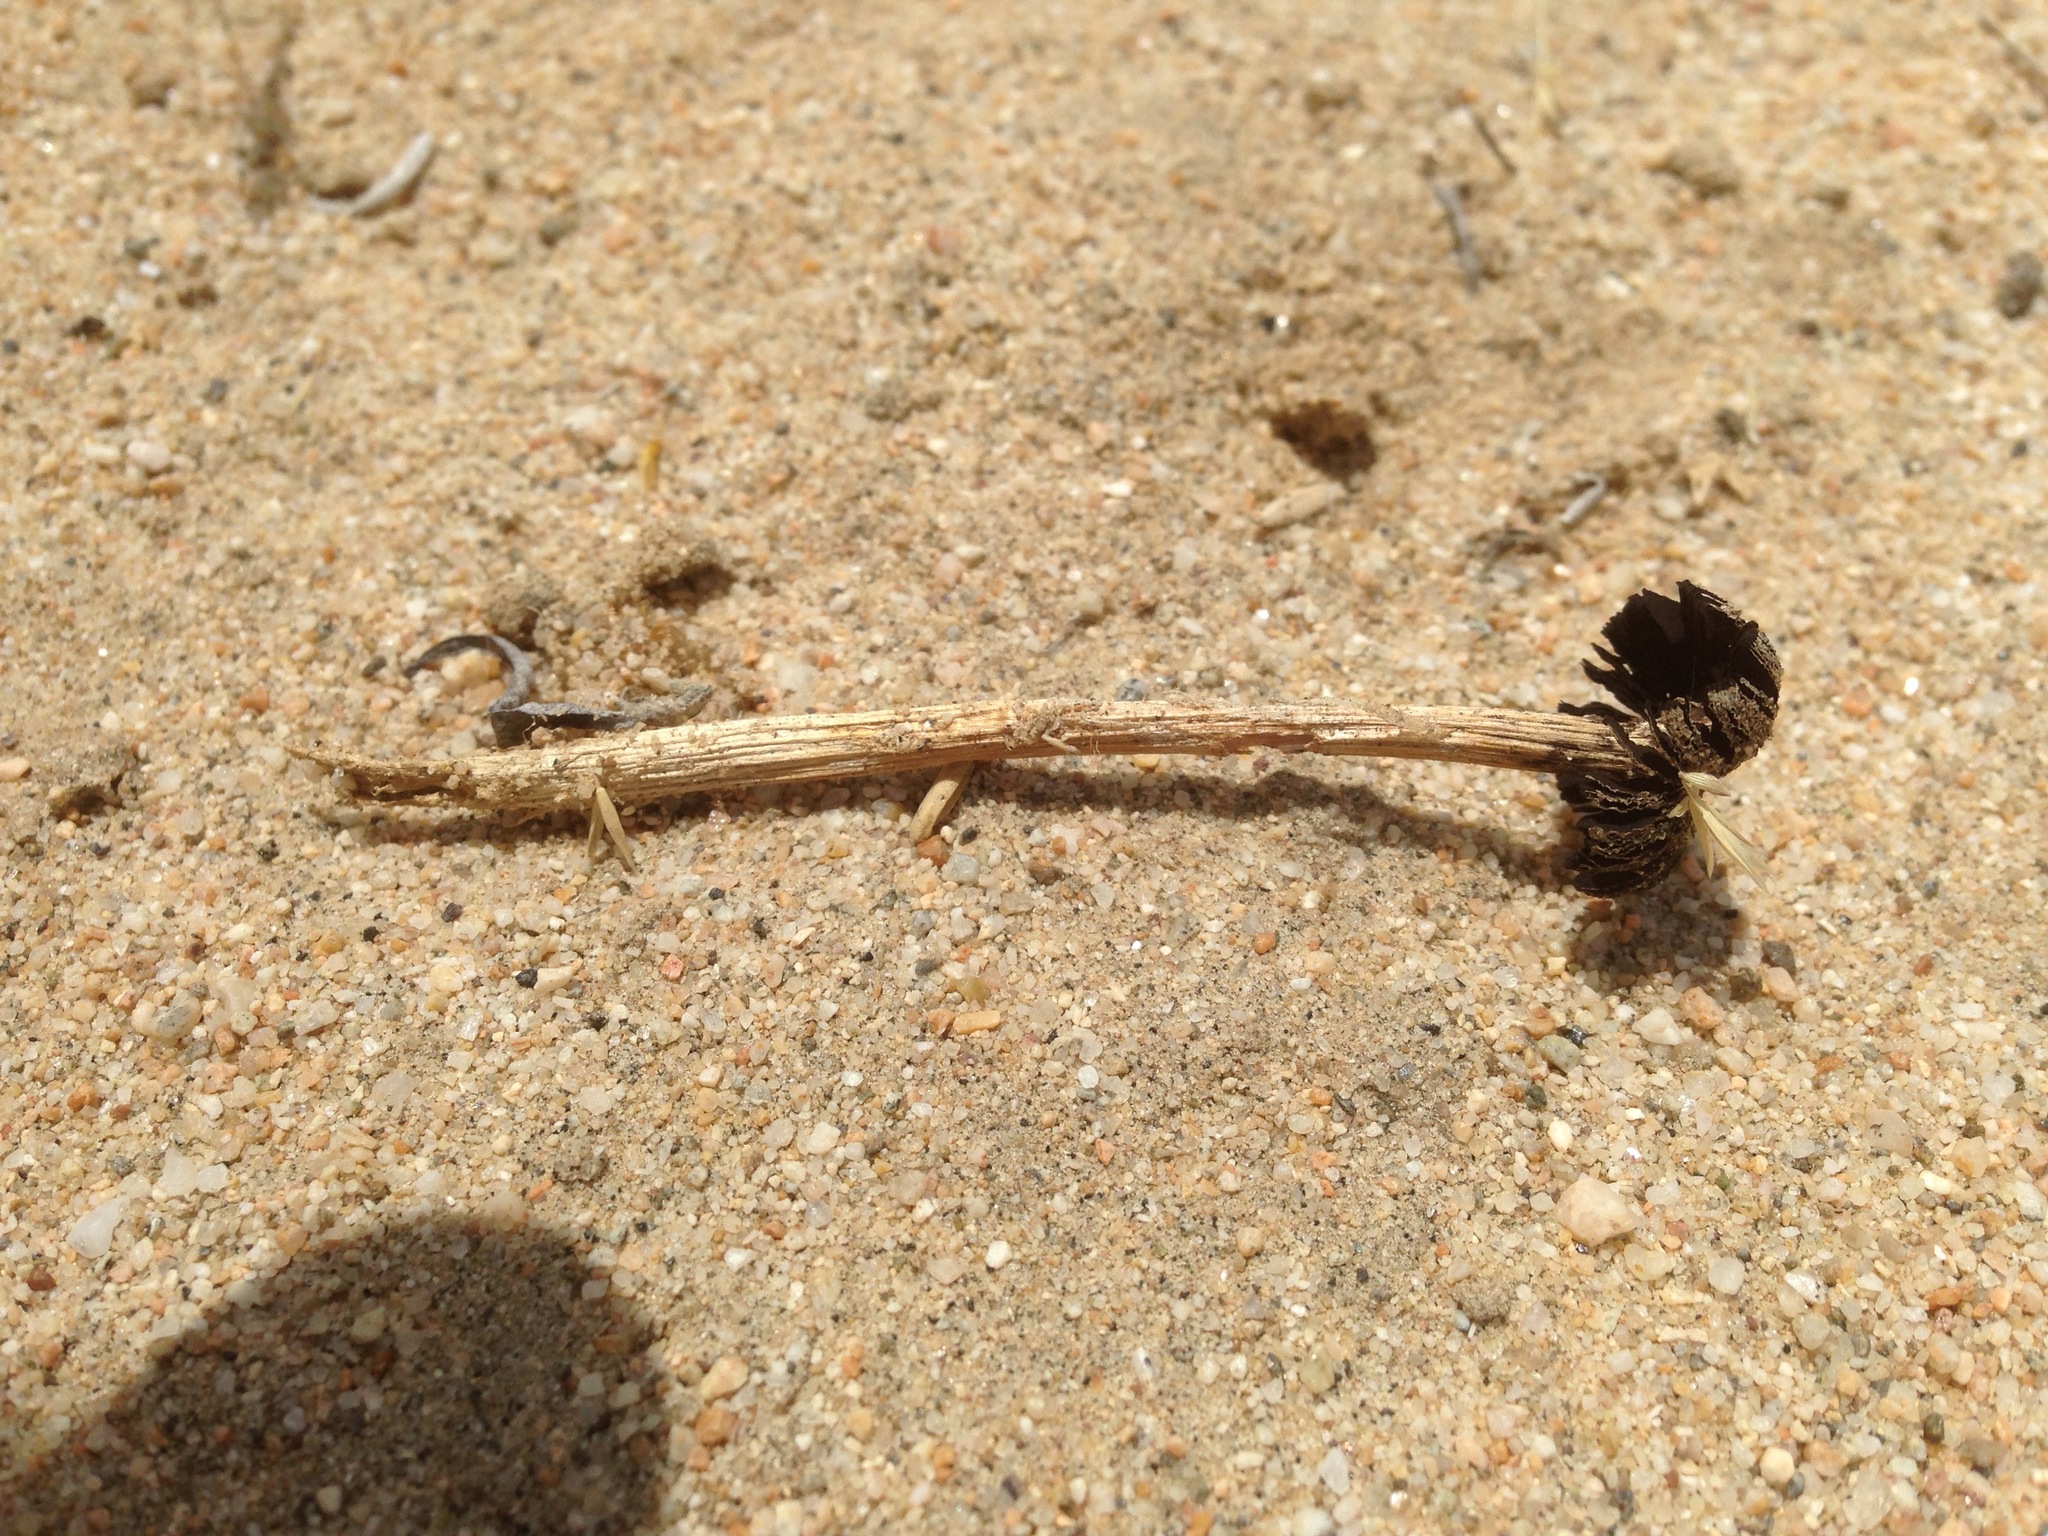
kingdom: Fungi
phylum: Basidiomycota
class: Agaricomycetes
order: Agaricales
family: Agaricaceae
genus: Montagnea
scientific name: Montagnea arenaria
